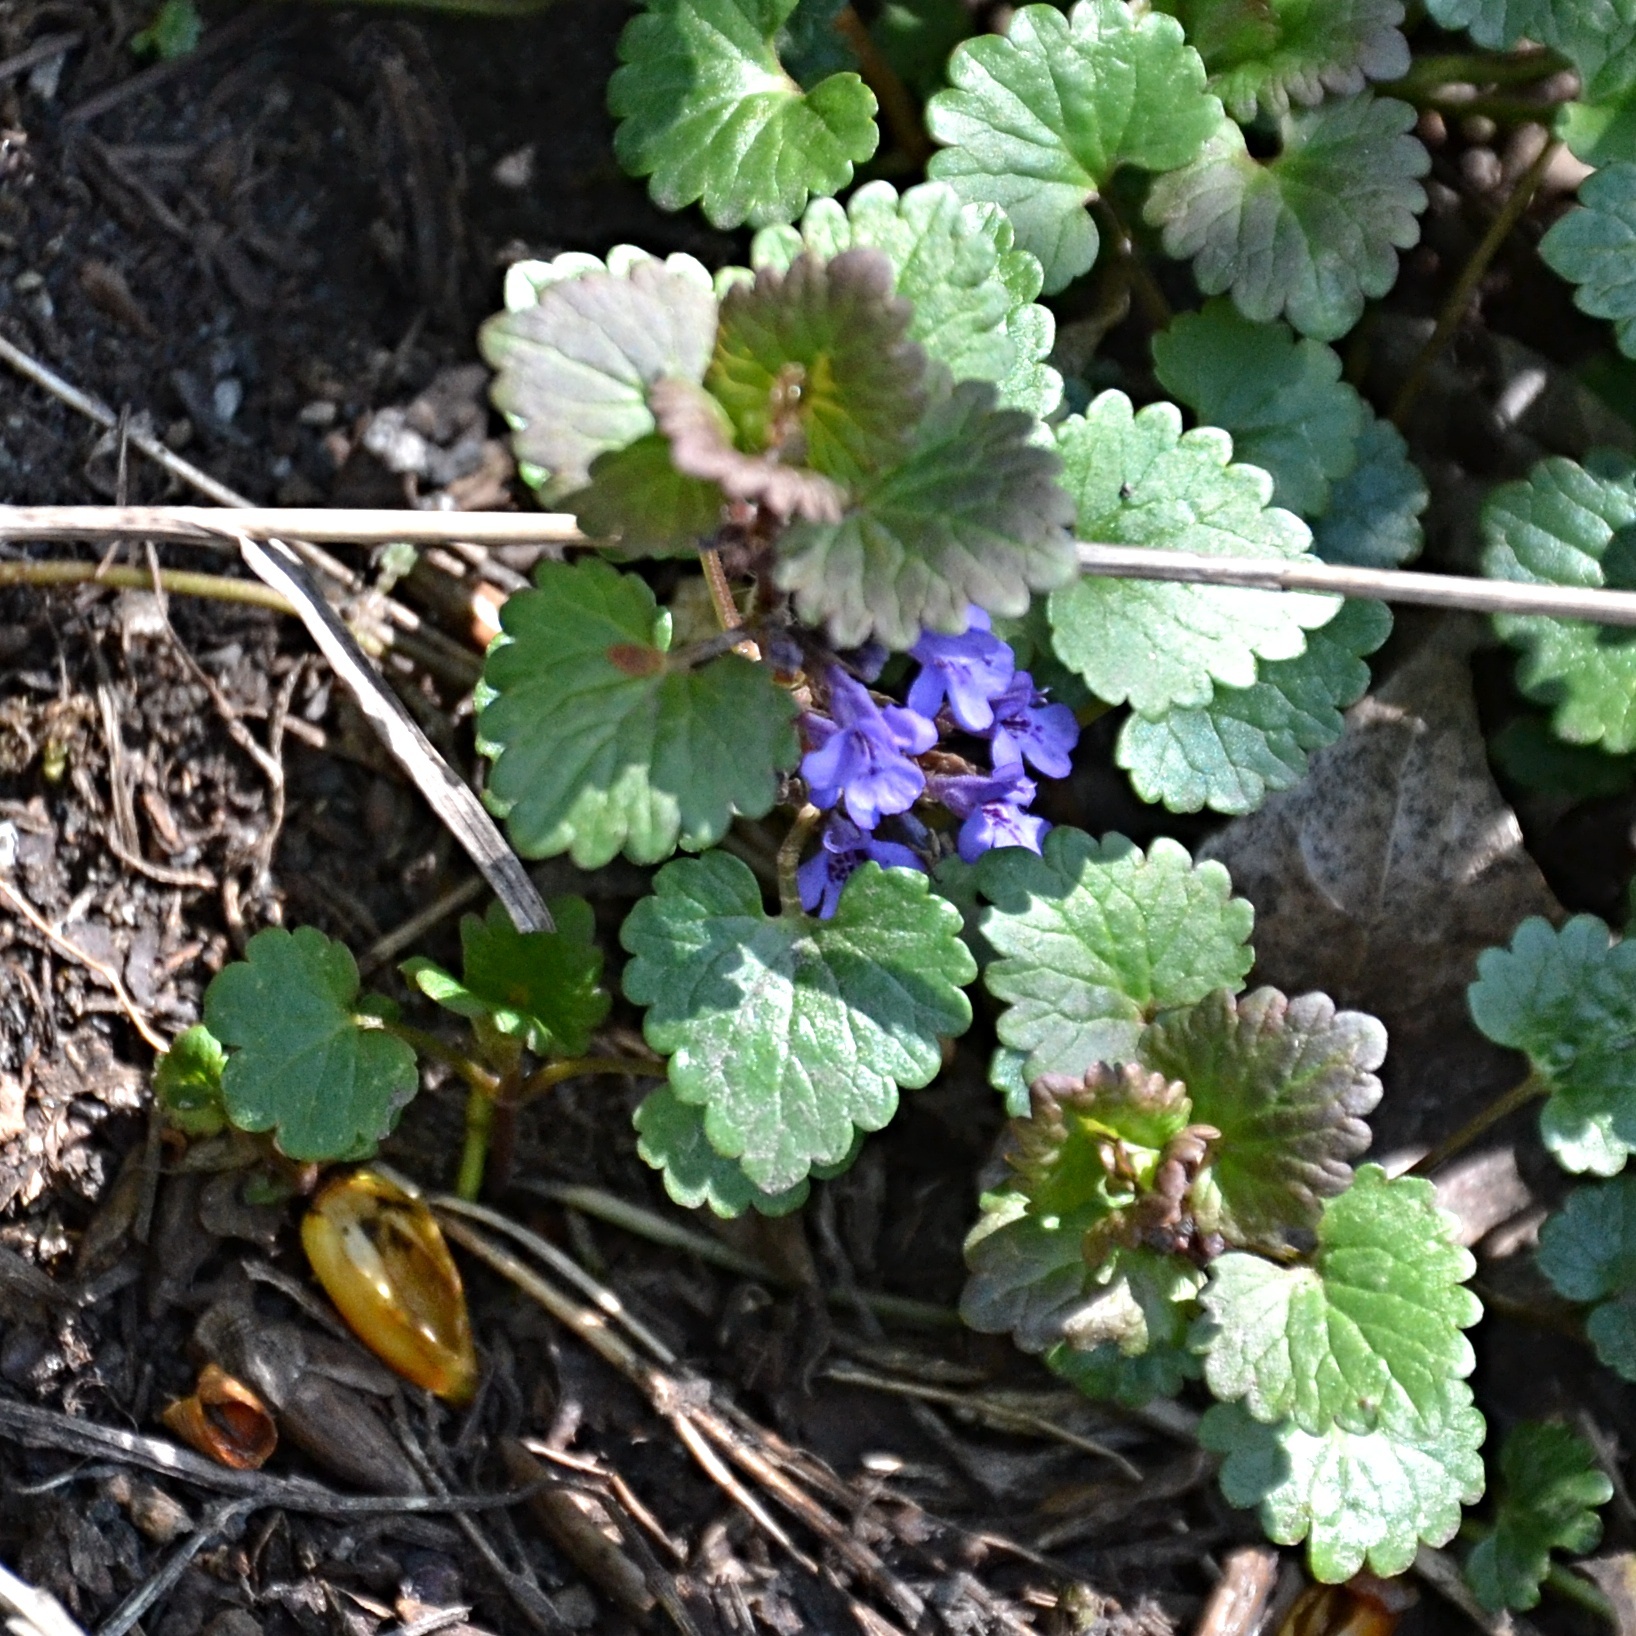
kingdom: Plantae
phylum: Tracheophyta
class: Magnoliopsida
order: Lamiales
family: Lamiaceae
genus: Glechoma
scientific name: Glechoma hederacea
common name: Ground ivy
